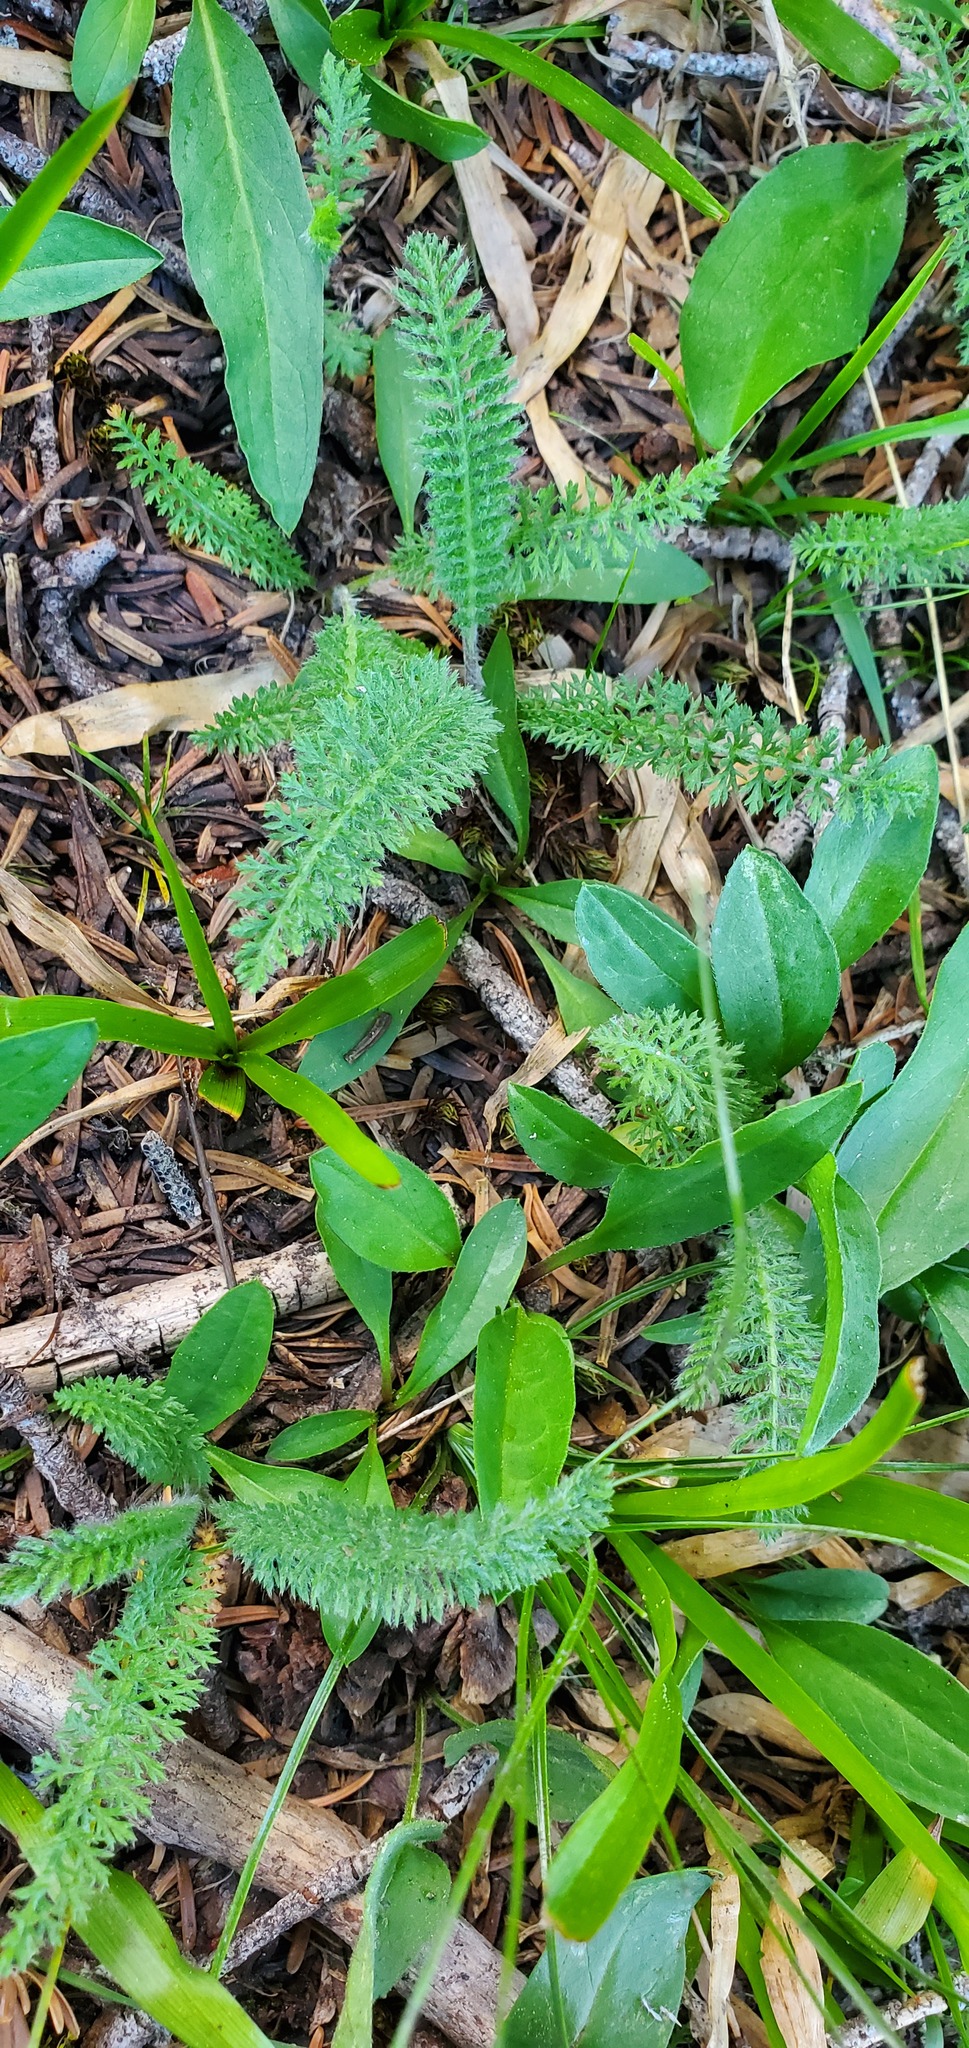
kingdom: Plantae
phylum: Tracheophyta
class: Magnoliopsida
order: Asterales
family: Asteraceae
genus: Achillea
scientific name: Achillea millefolium
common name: Yarrow
